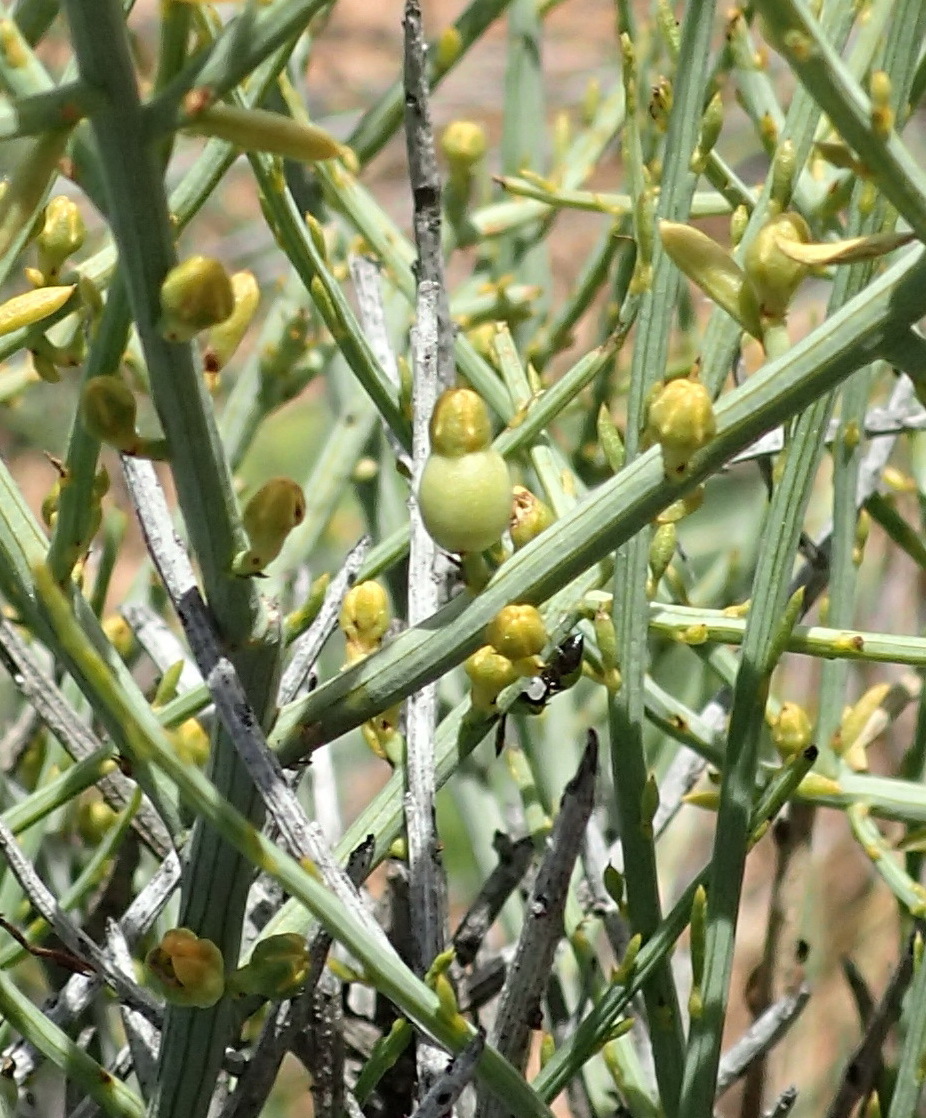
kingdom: Plantae
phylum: Tracheophyta
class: Magnoliopsida
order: Santalales
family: Thesiaceae
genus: Lacomucinaea
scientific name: Lacomucinaea lineata
